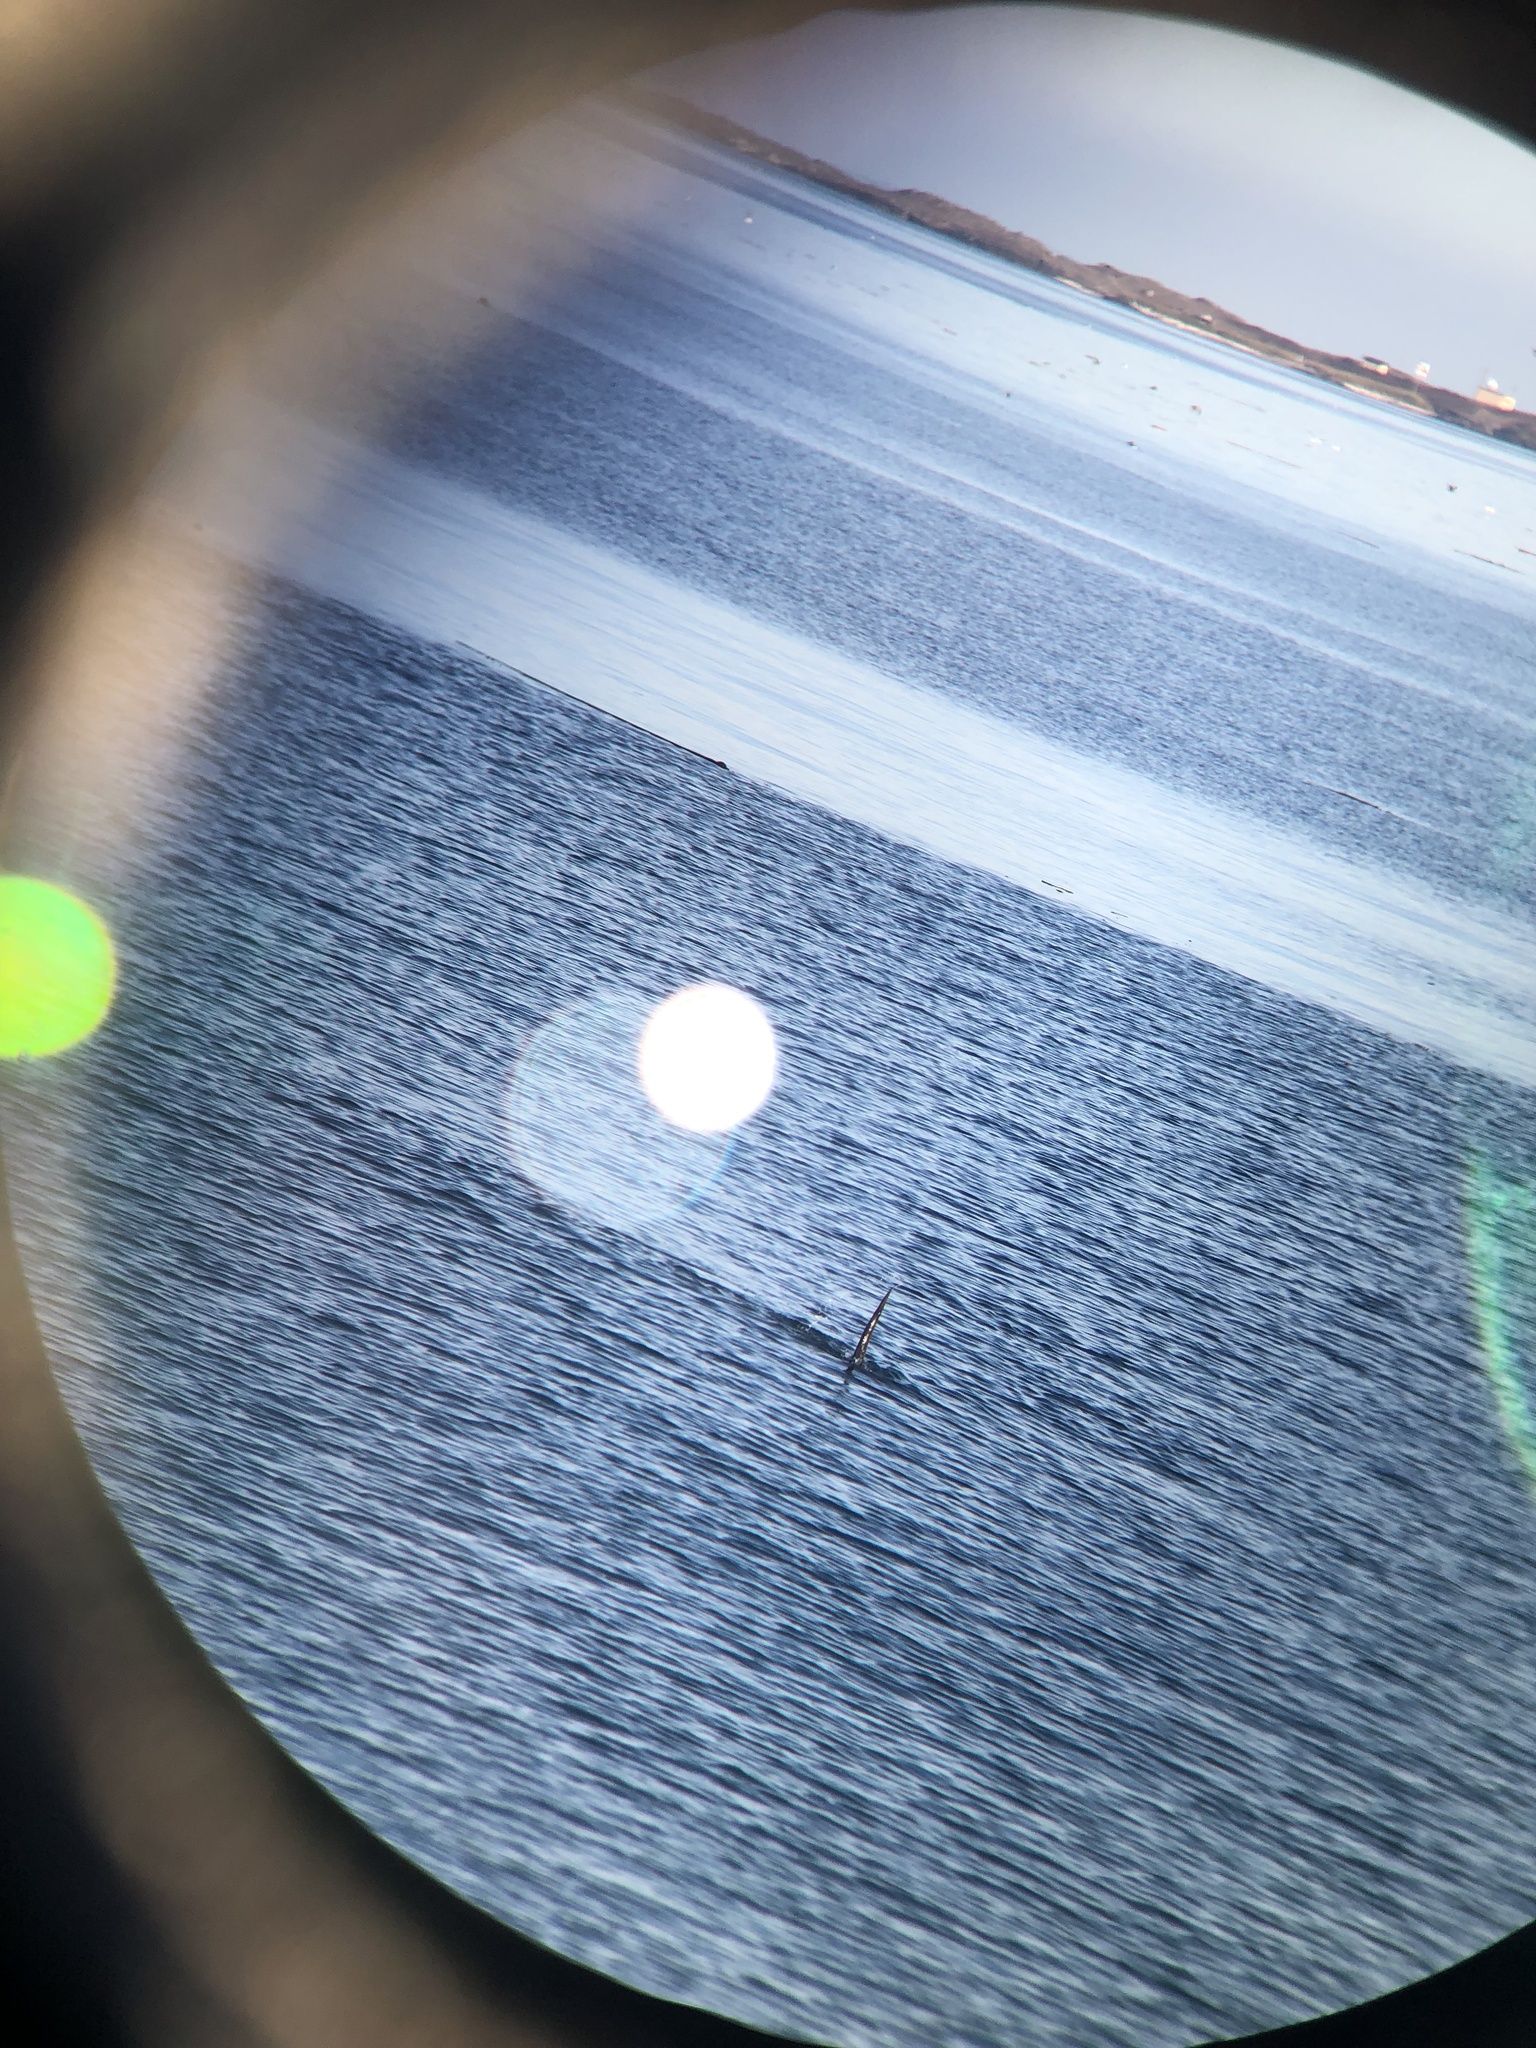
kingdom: Animalia
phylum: Chordata
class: Mammalia
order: Carnivora
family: Mustelidae
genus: Lontra
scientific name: Lontra canadensis
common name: North american river otter
